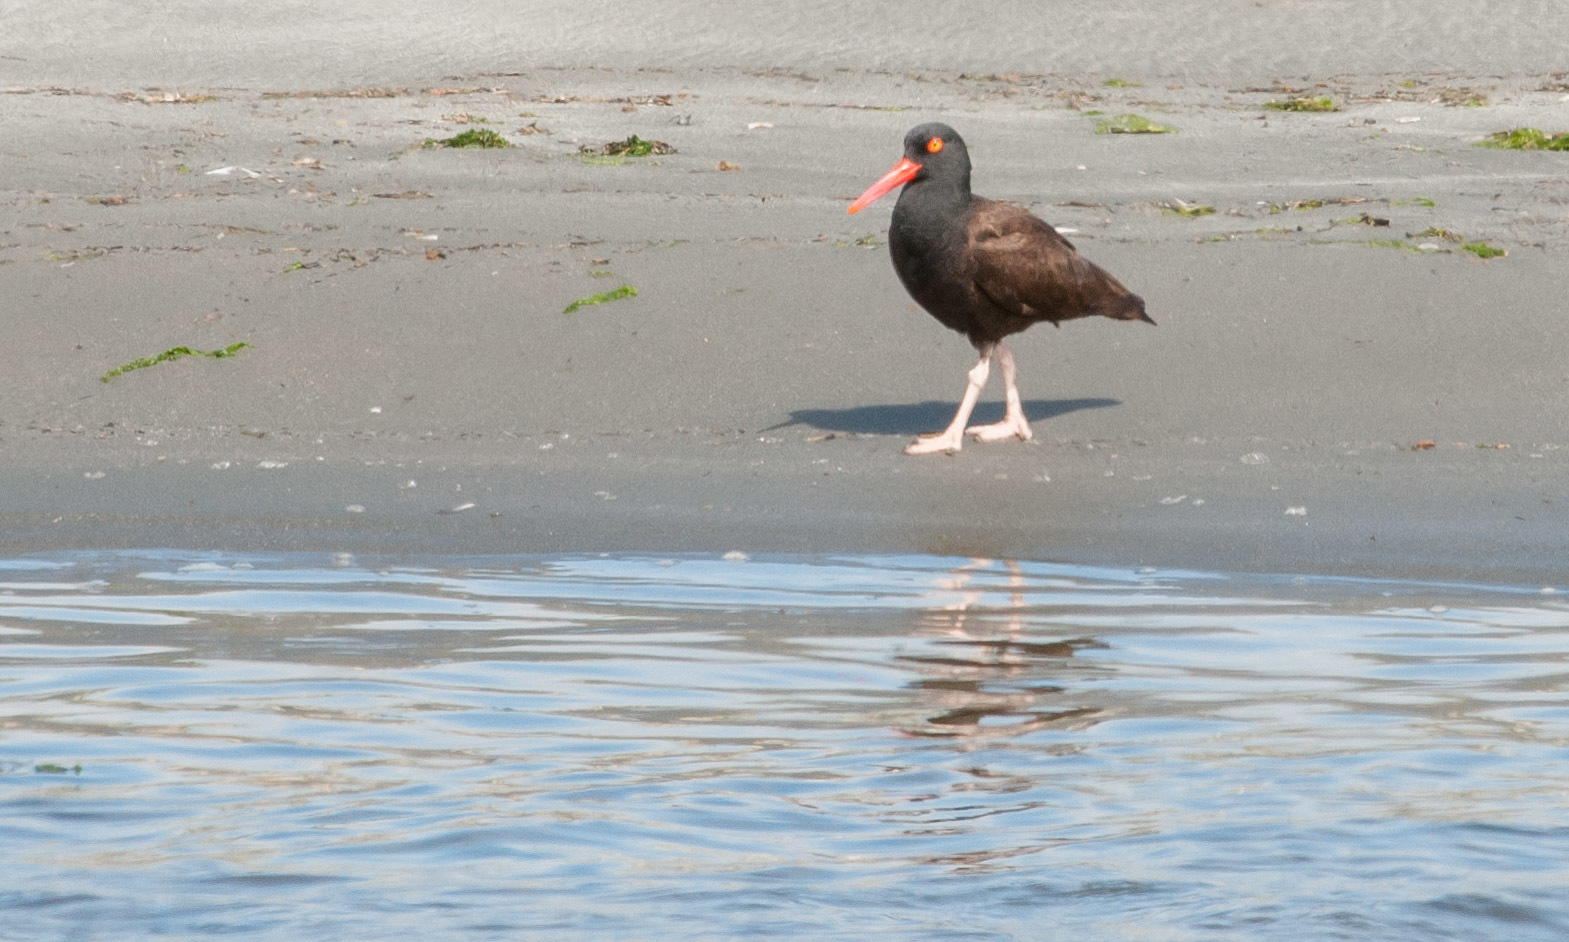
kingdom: Animalia
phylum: Chordata
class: Aves
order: Charadriiformes
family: Haematopodidae
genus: Haematopus
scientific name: Haematopus bachmani
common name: Black oystercatcher
